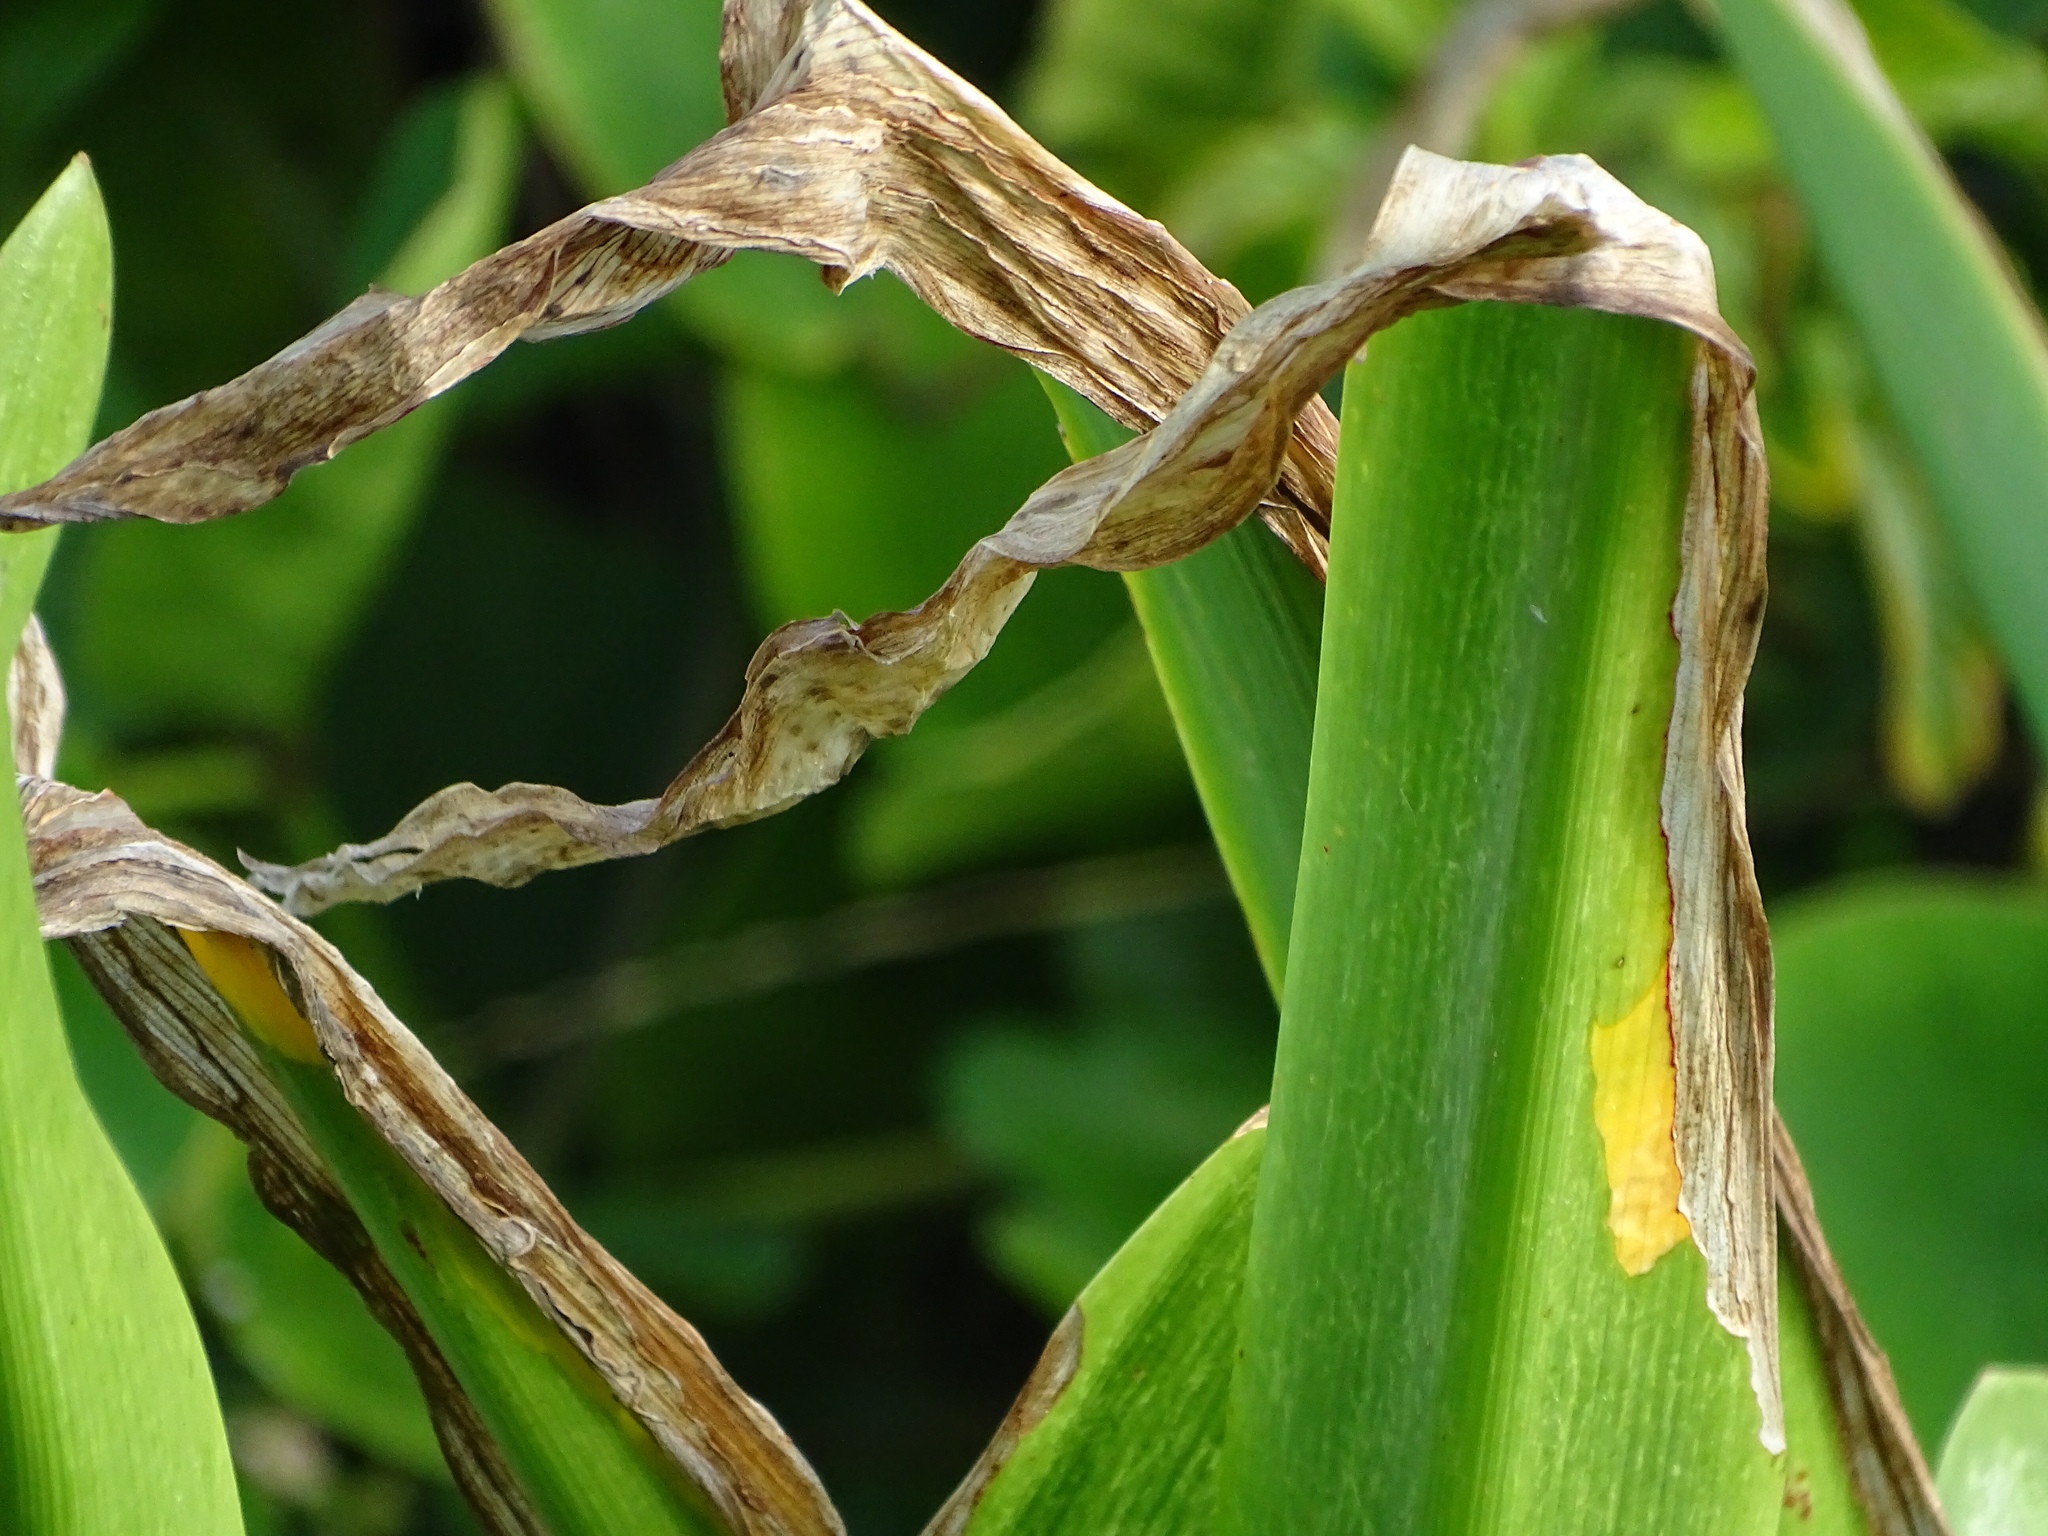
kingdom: Plantae
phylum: Tracheophyta
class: Liliopsida
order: Asparagales
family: Amaryllidaceae
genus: Hymenocallis
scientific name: Hymenocallis littoralis
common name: Beach spiderlily
